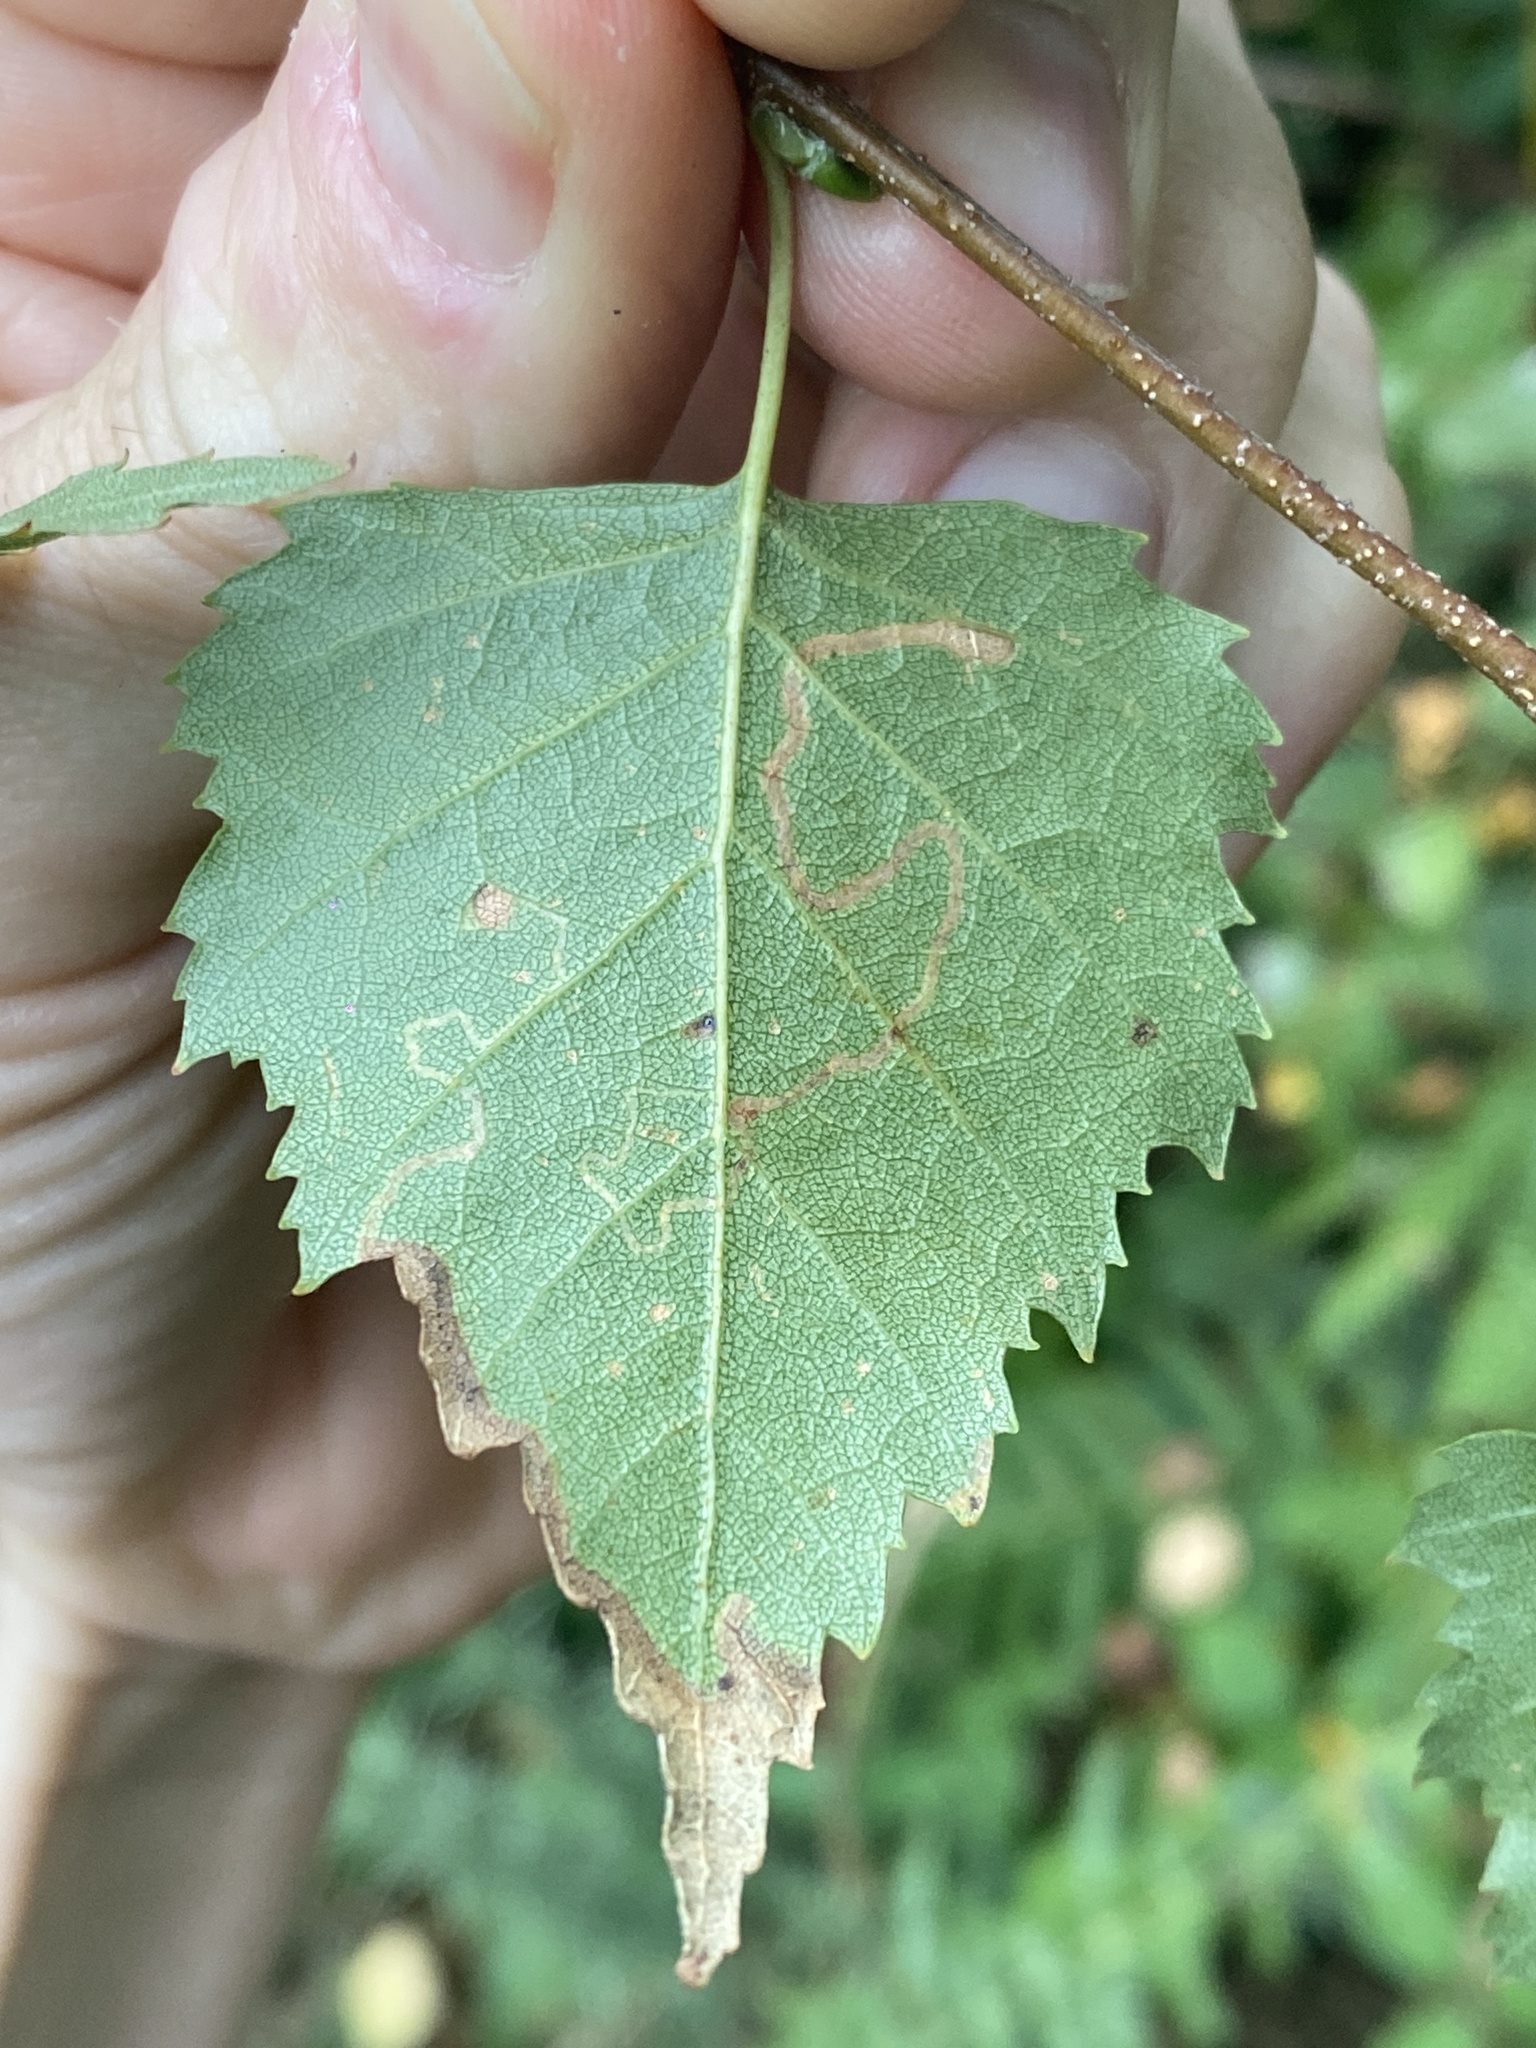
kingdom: Animalia
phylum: Arthropoda
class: Insecta
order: Lepidoptera
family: Lyonetiidae
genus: Lyonetia
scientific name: Lyonetia clerkella
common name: Apple leaf miner
